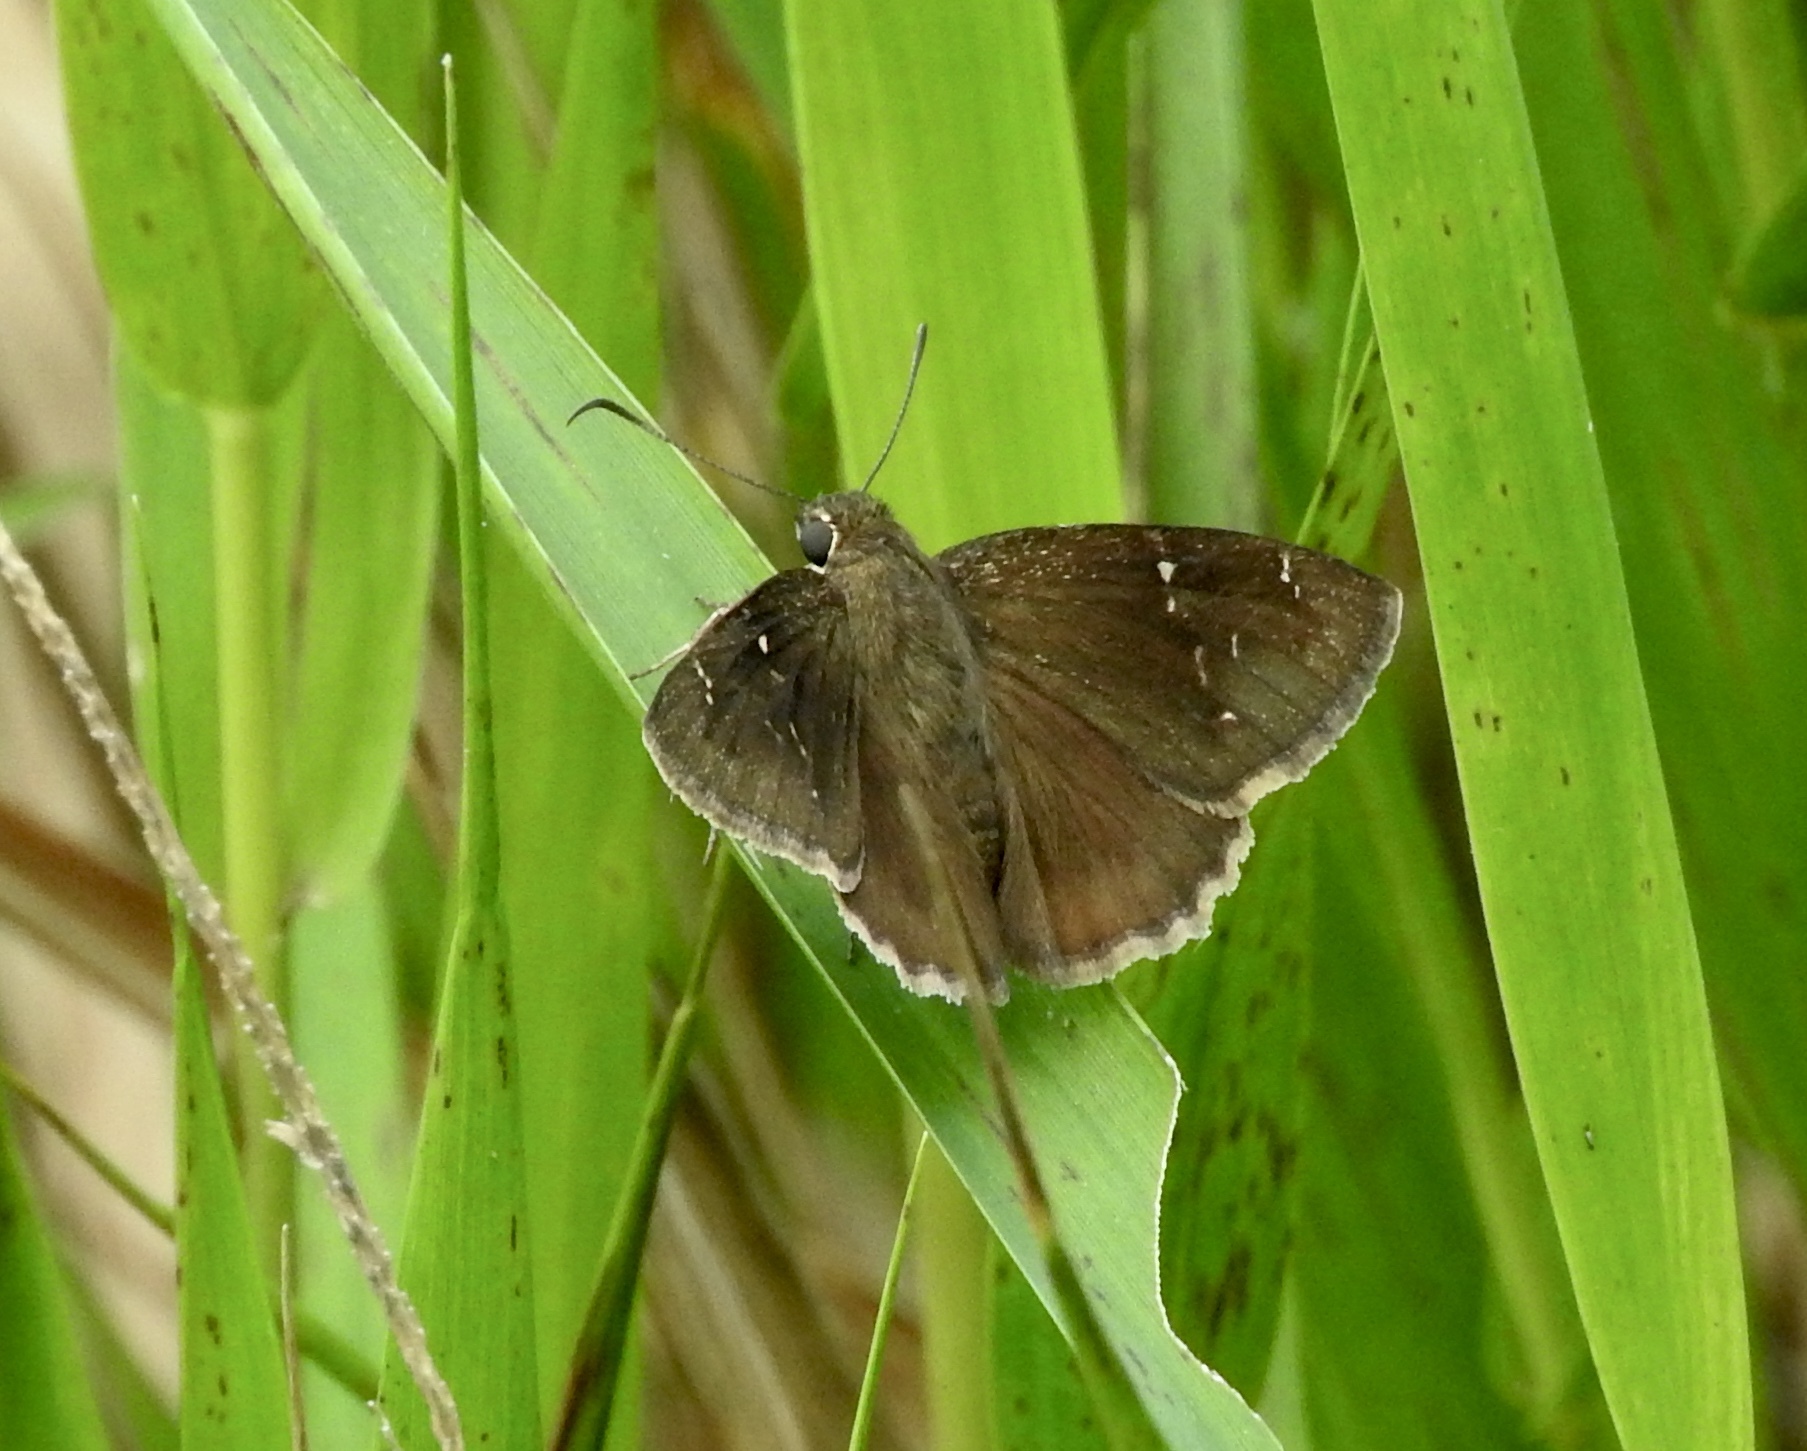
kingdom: Animalia
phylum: Arthropoda
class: Insecta
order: Lepidoptera
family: Hesperiidae
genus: Thorybes
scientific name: Thorybes mexicana
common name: Mexican cloudywing
